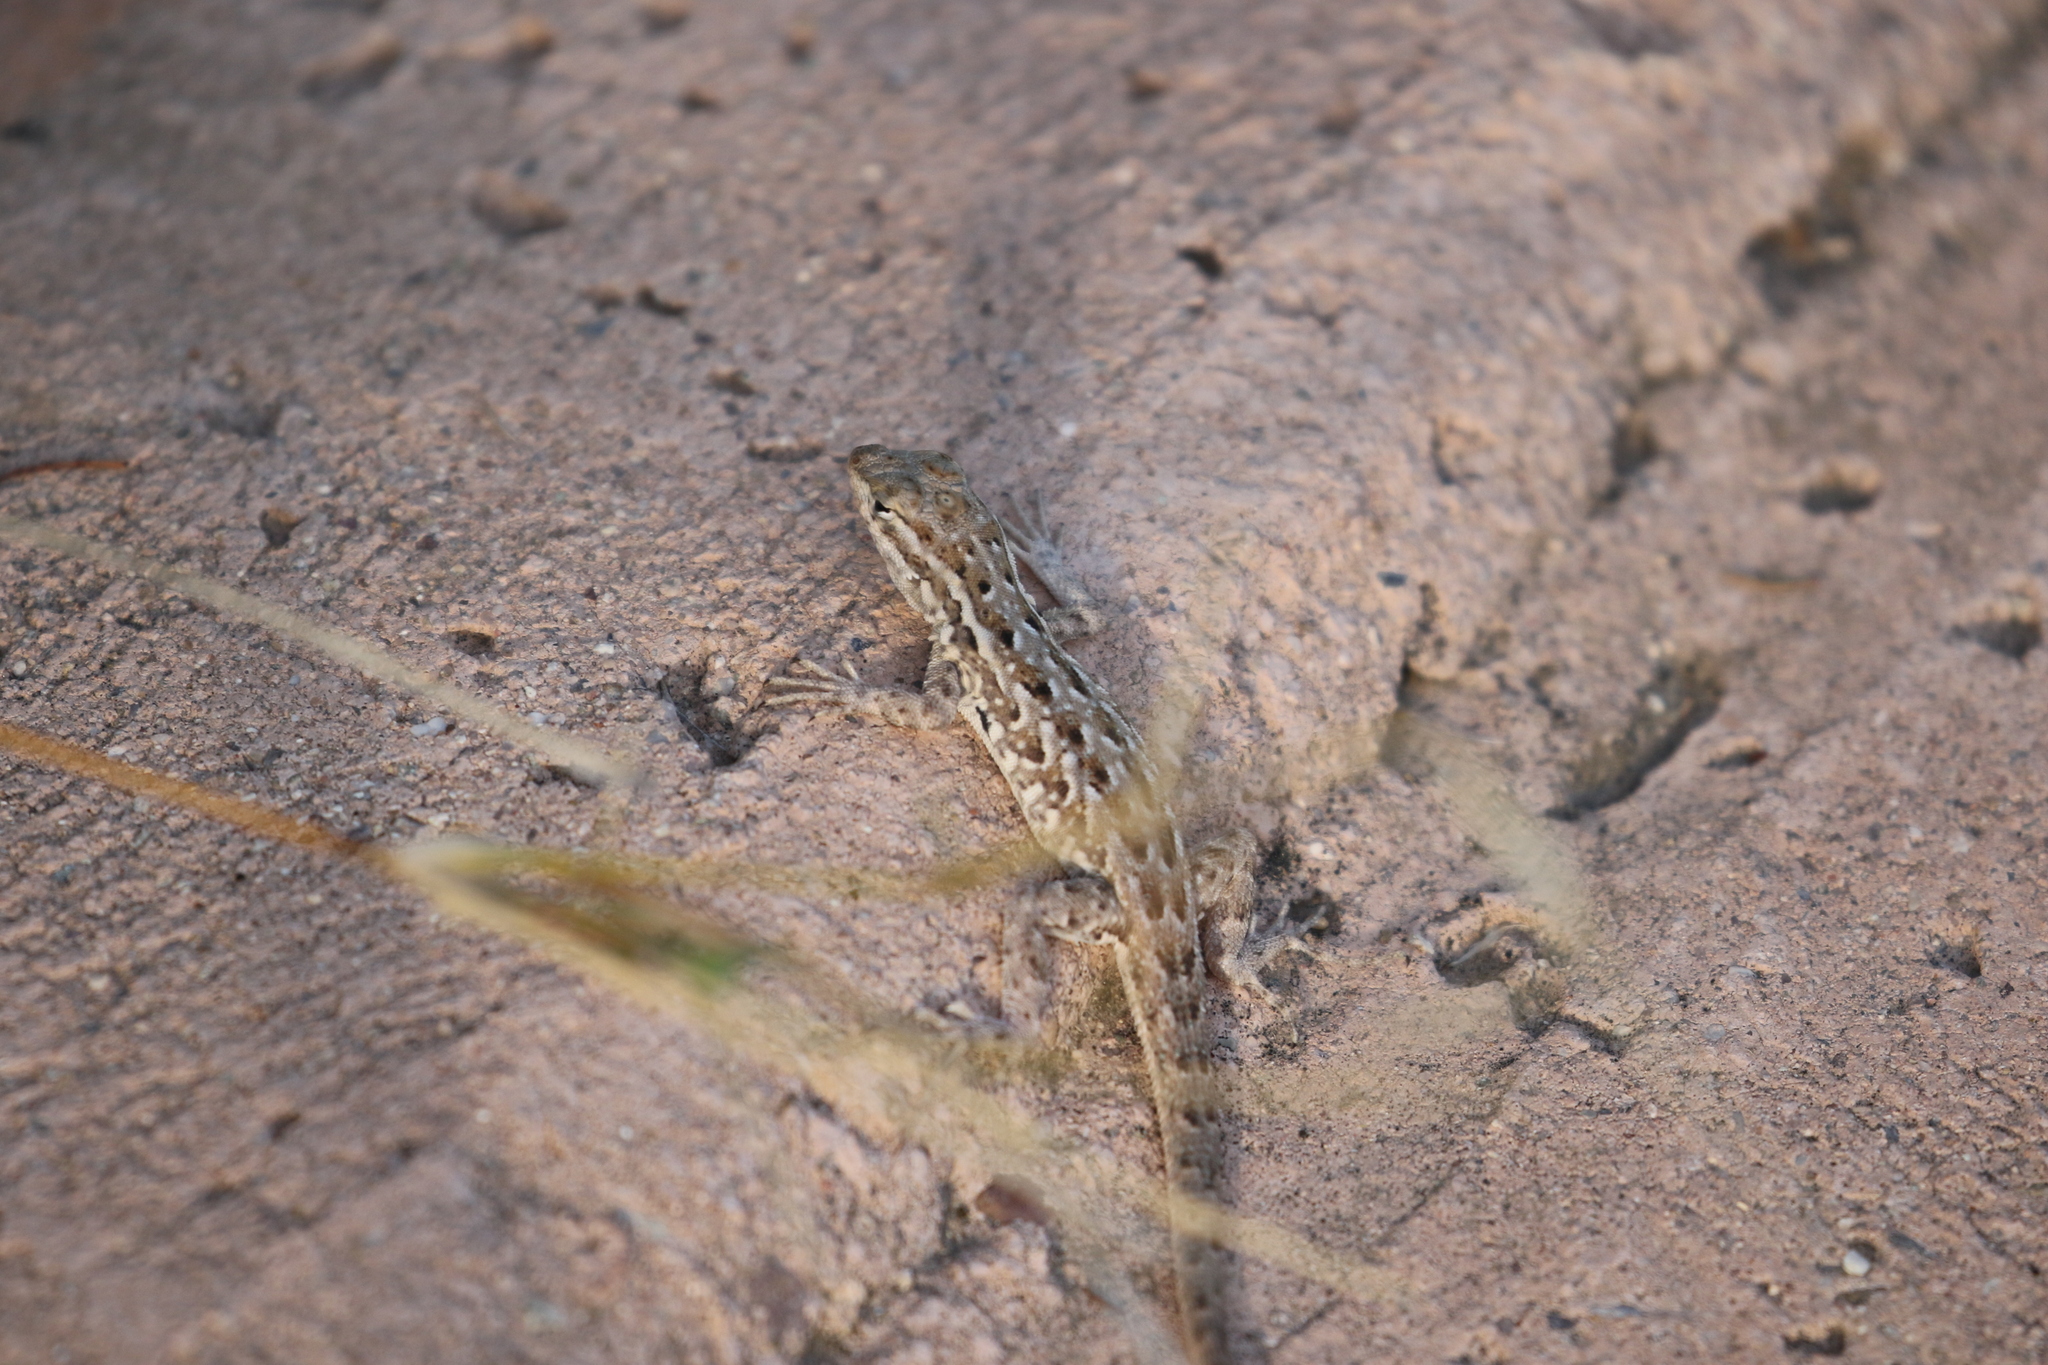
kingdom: Animalia
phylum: Chordata
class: Squamata
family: Phrynosomatidae
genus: Uta
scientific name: Uta stansburiana
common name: Side-blotched lizard
